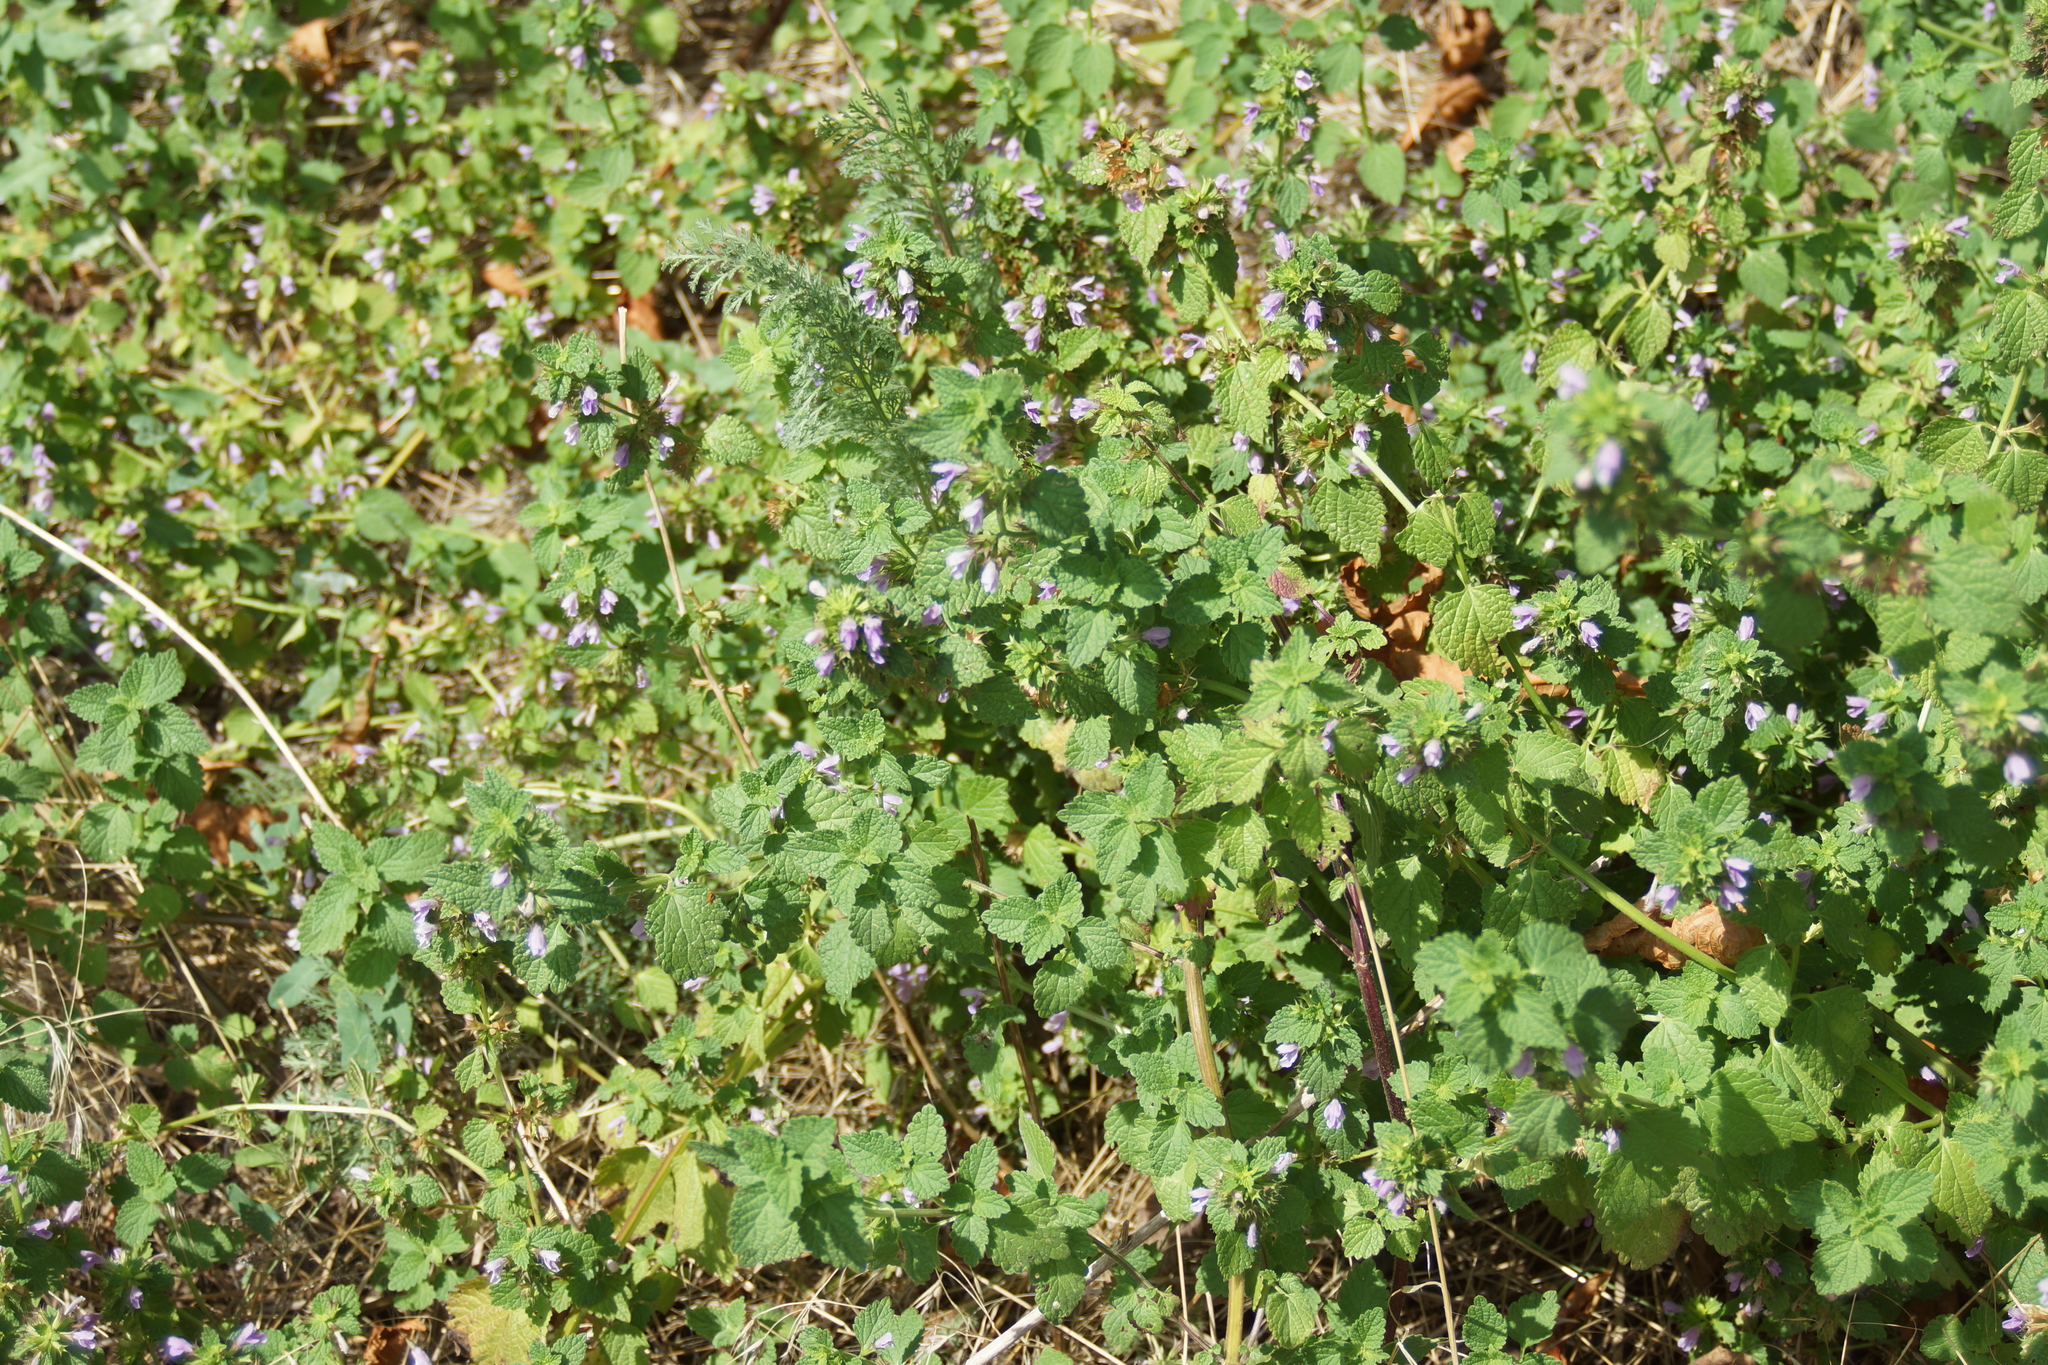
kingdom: Plantae
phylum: Tracheophyta
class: Magnoliopsida
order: Lamiales
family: Lamiaceae
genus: Ballota
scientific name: Ballota nigra
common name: Black horehound
